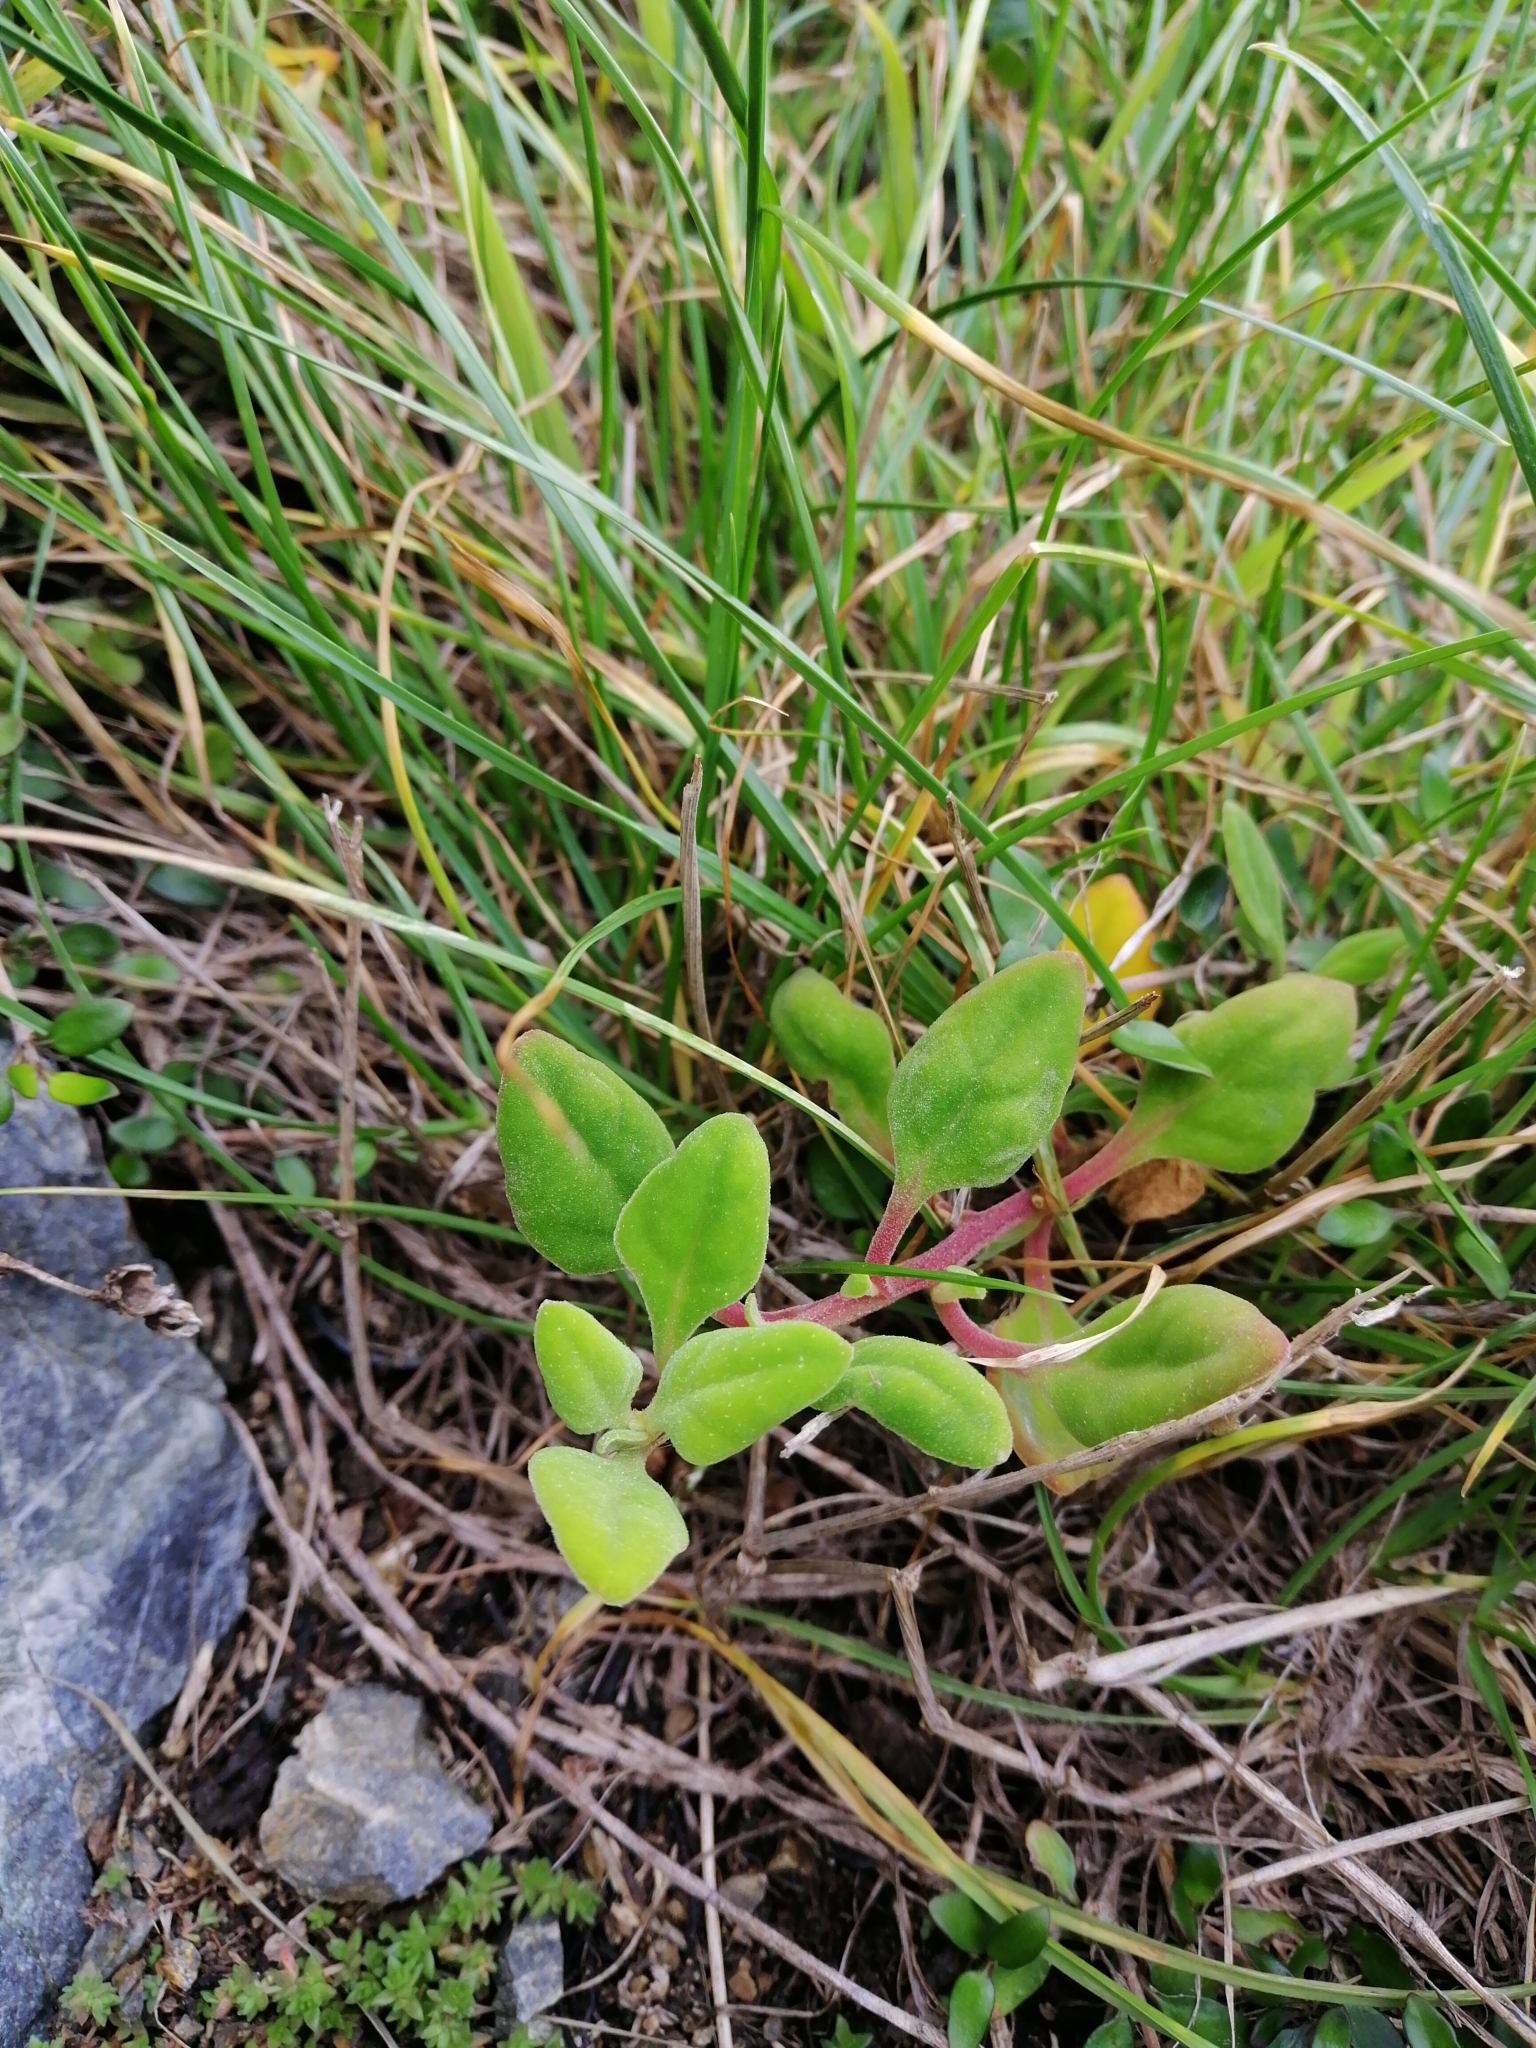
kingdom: Plantae
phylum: Tracheophyta
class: Magnoliopsida
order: Caryophyllales
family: Aizoaceae
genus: Tetragonia
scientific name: Tetragonia implexicoma
